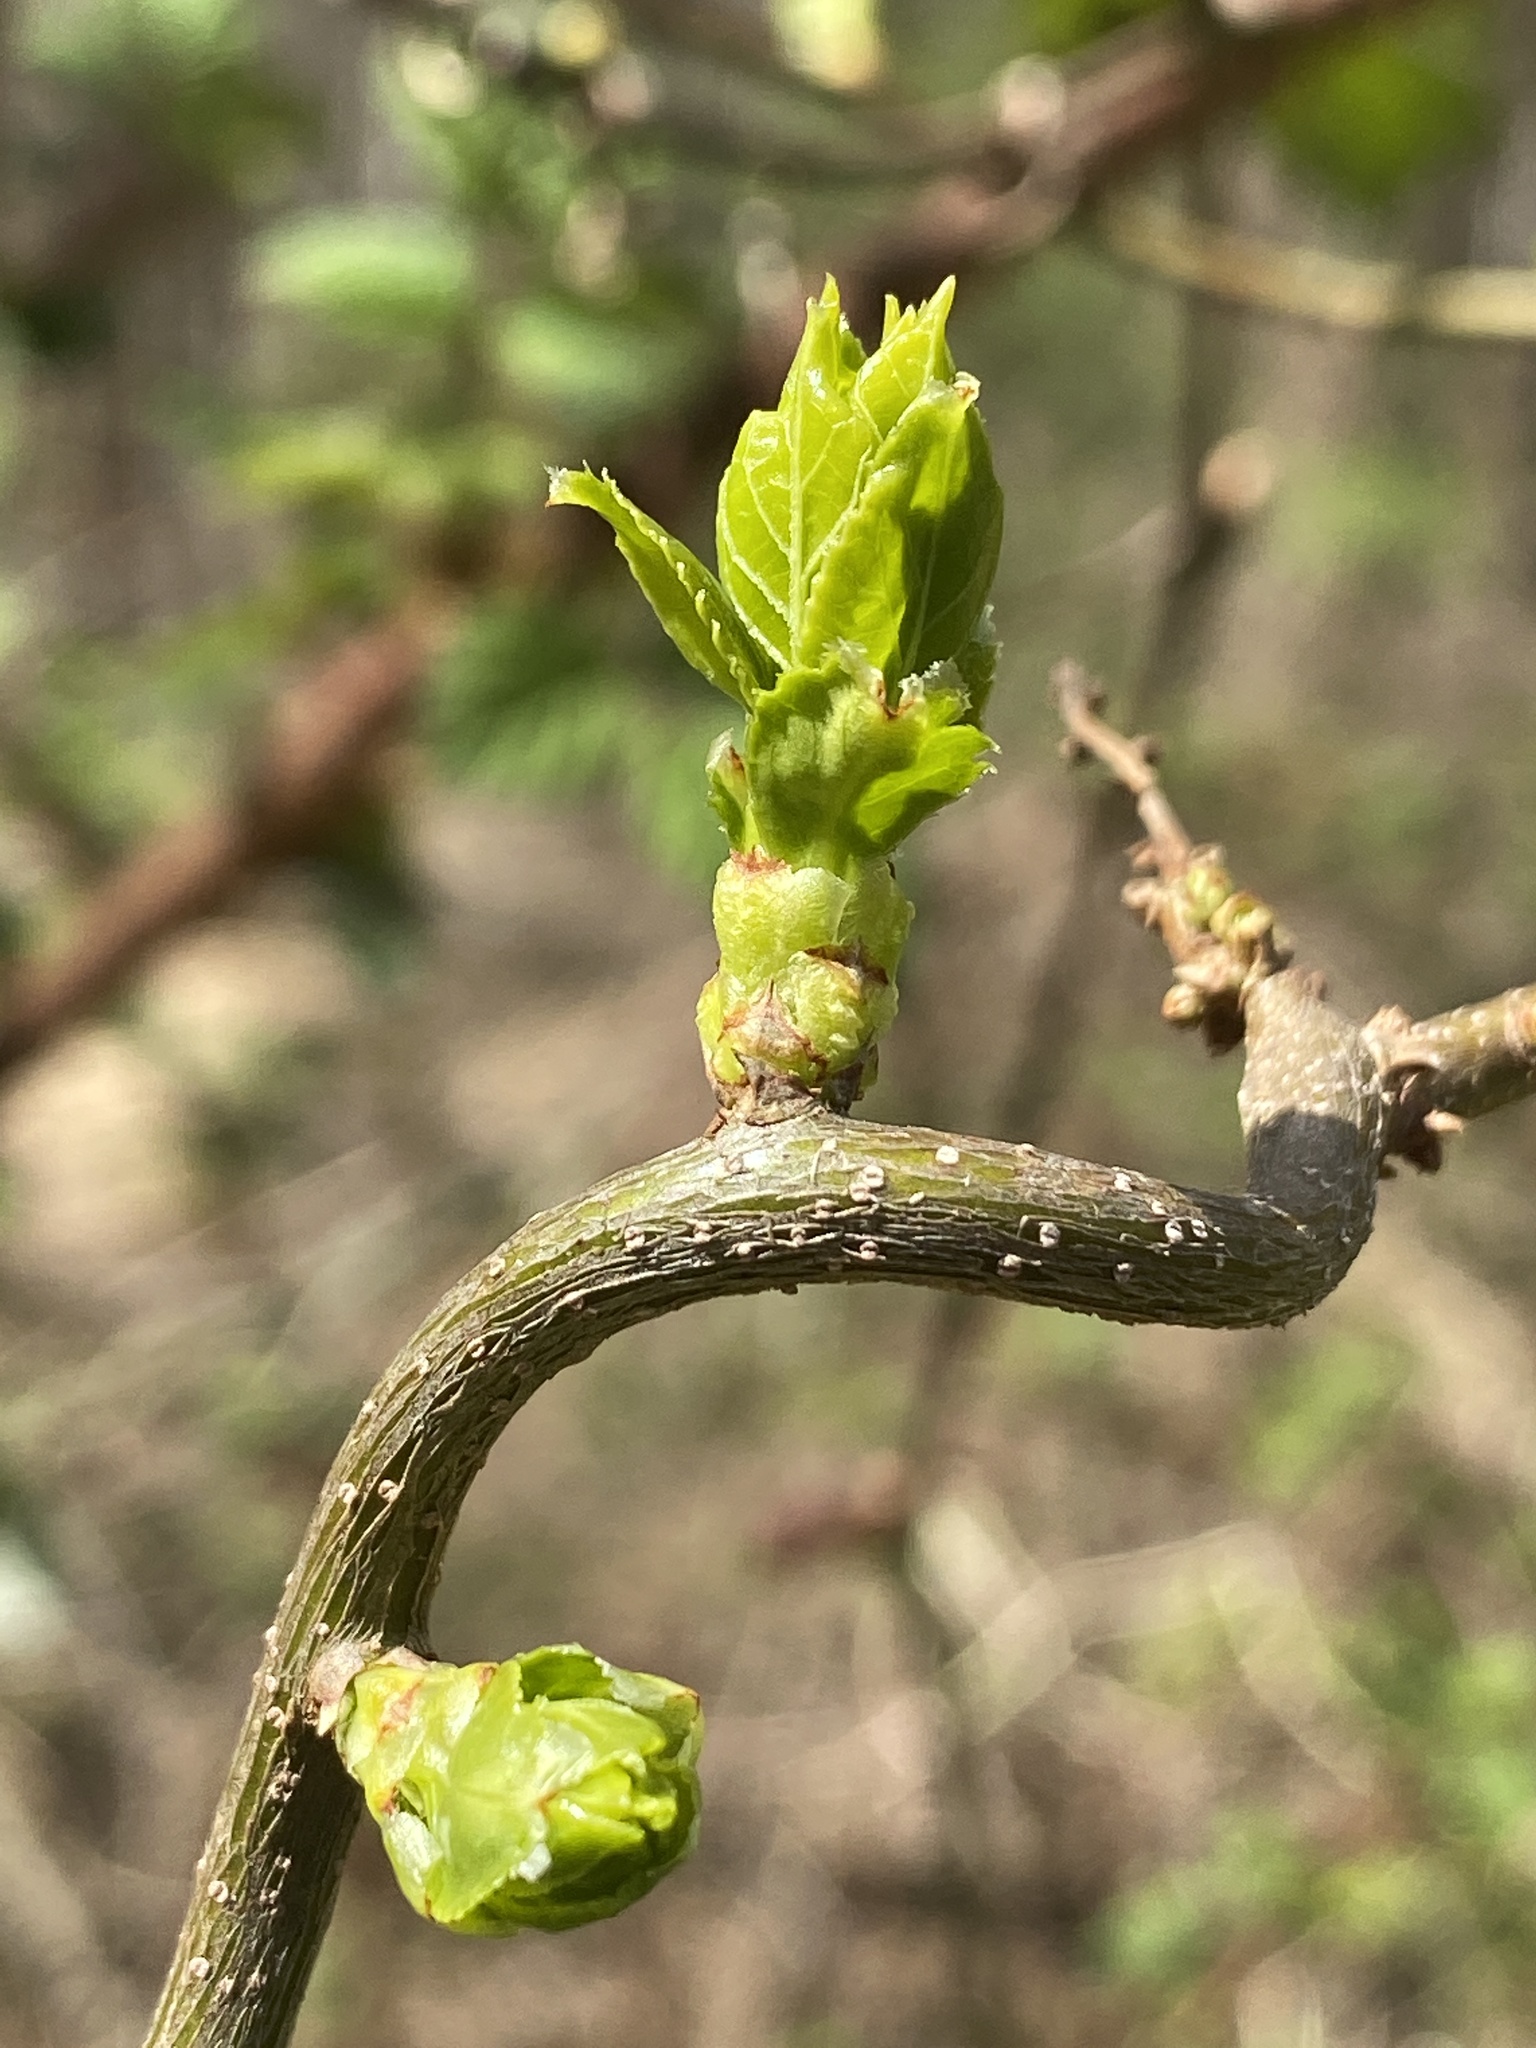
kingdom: Plantae
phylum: Tracheophyta
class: Magnoliopsida
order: Celastrales
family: Celastraceae
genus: Celastrus
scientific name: Celastrus orbiculatus
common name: Oriental bittersweet
